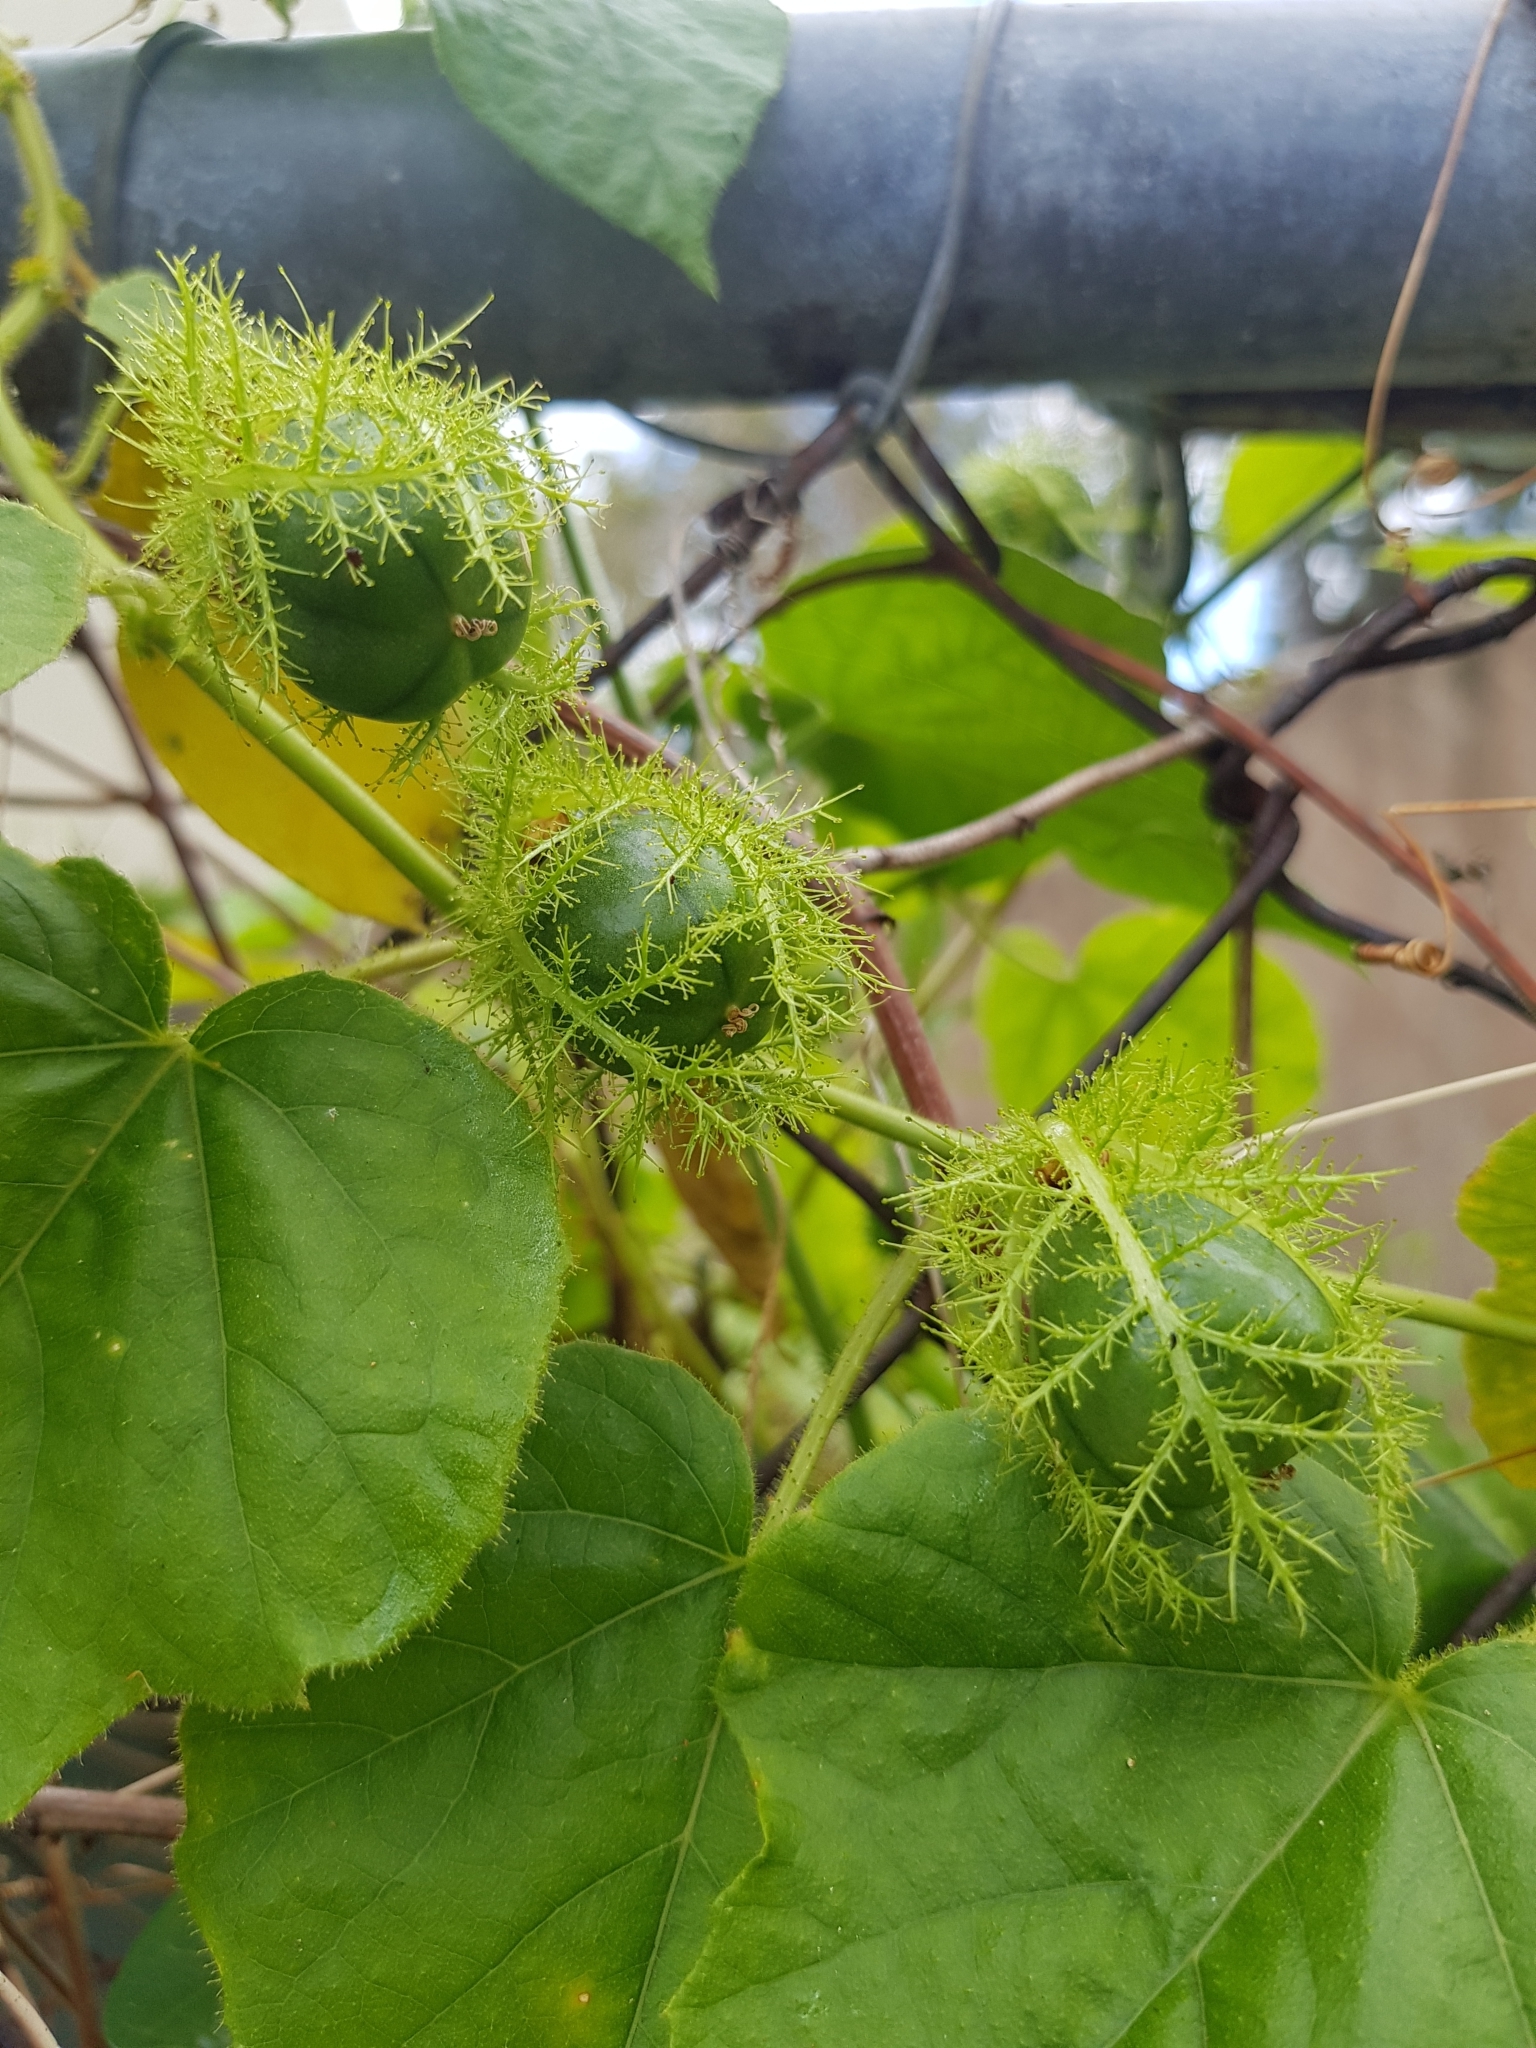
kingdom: Plantae
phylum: Tracheophyta
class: Magnoliopsida
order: Malpighiales
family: Passifloraceae
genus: Passiflora
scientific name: Passiflora foetida
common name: Fetid passionflower
